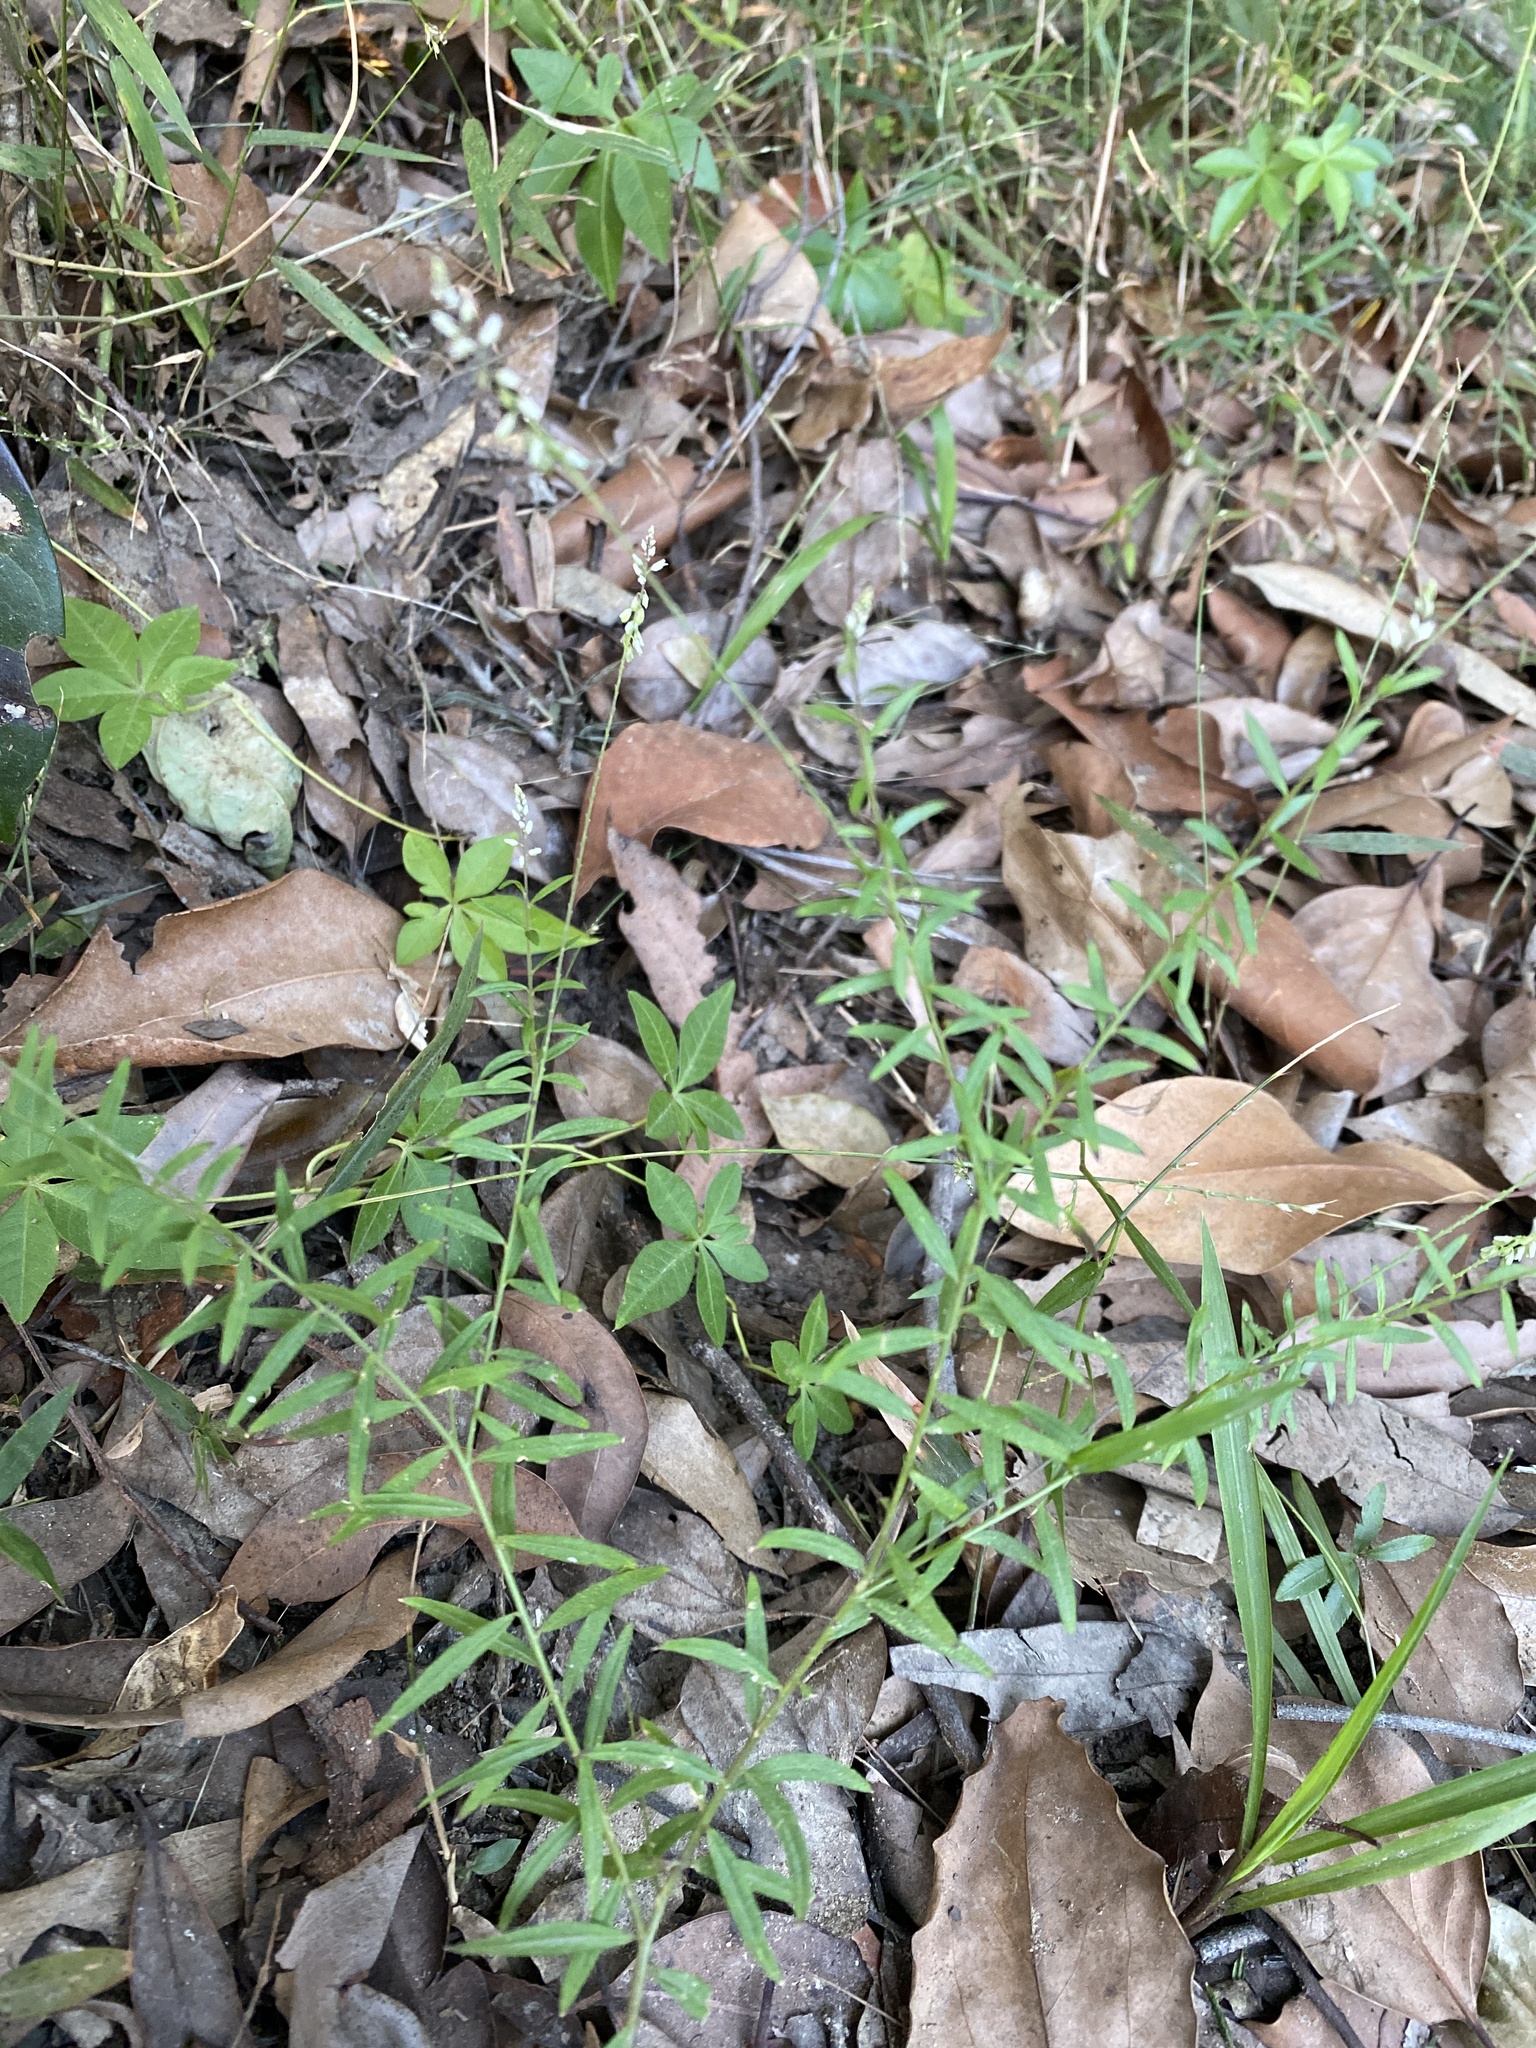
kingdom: Plantae
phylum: Tracheophyta
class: Magnoliopsida
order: Fabales
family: Polygalaceae
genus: Polygala
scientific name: Polygala paniculata
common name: Orosne
